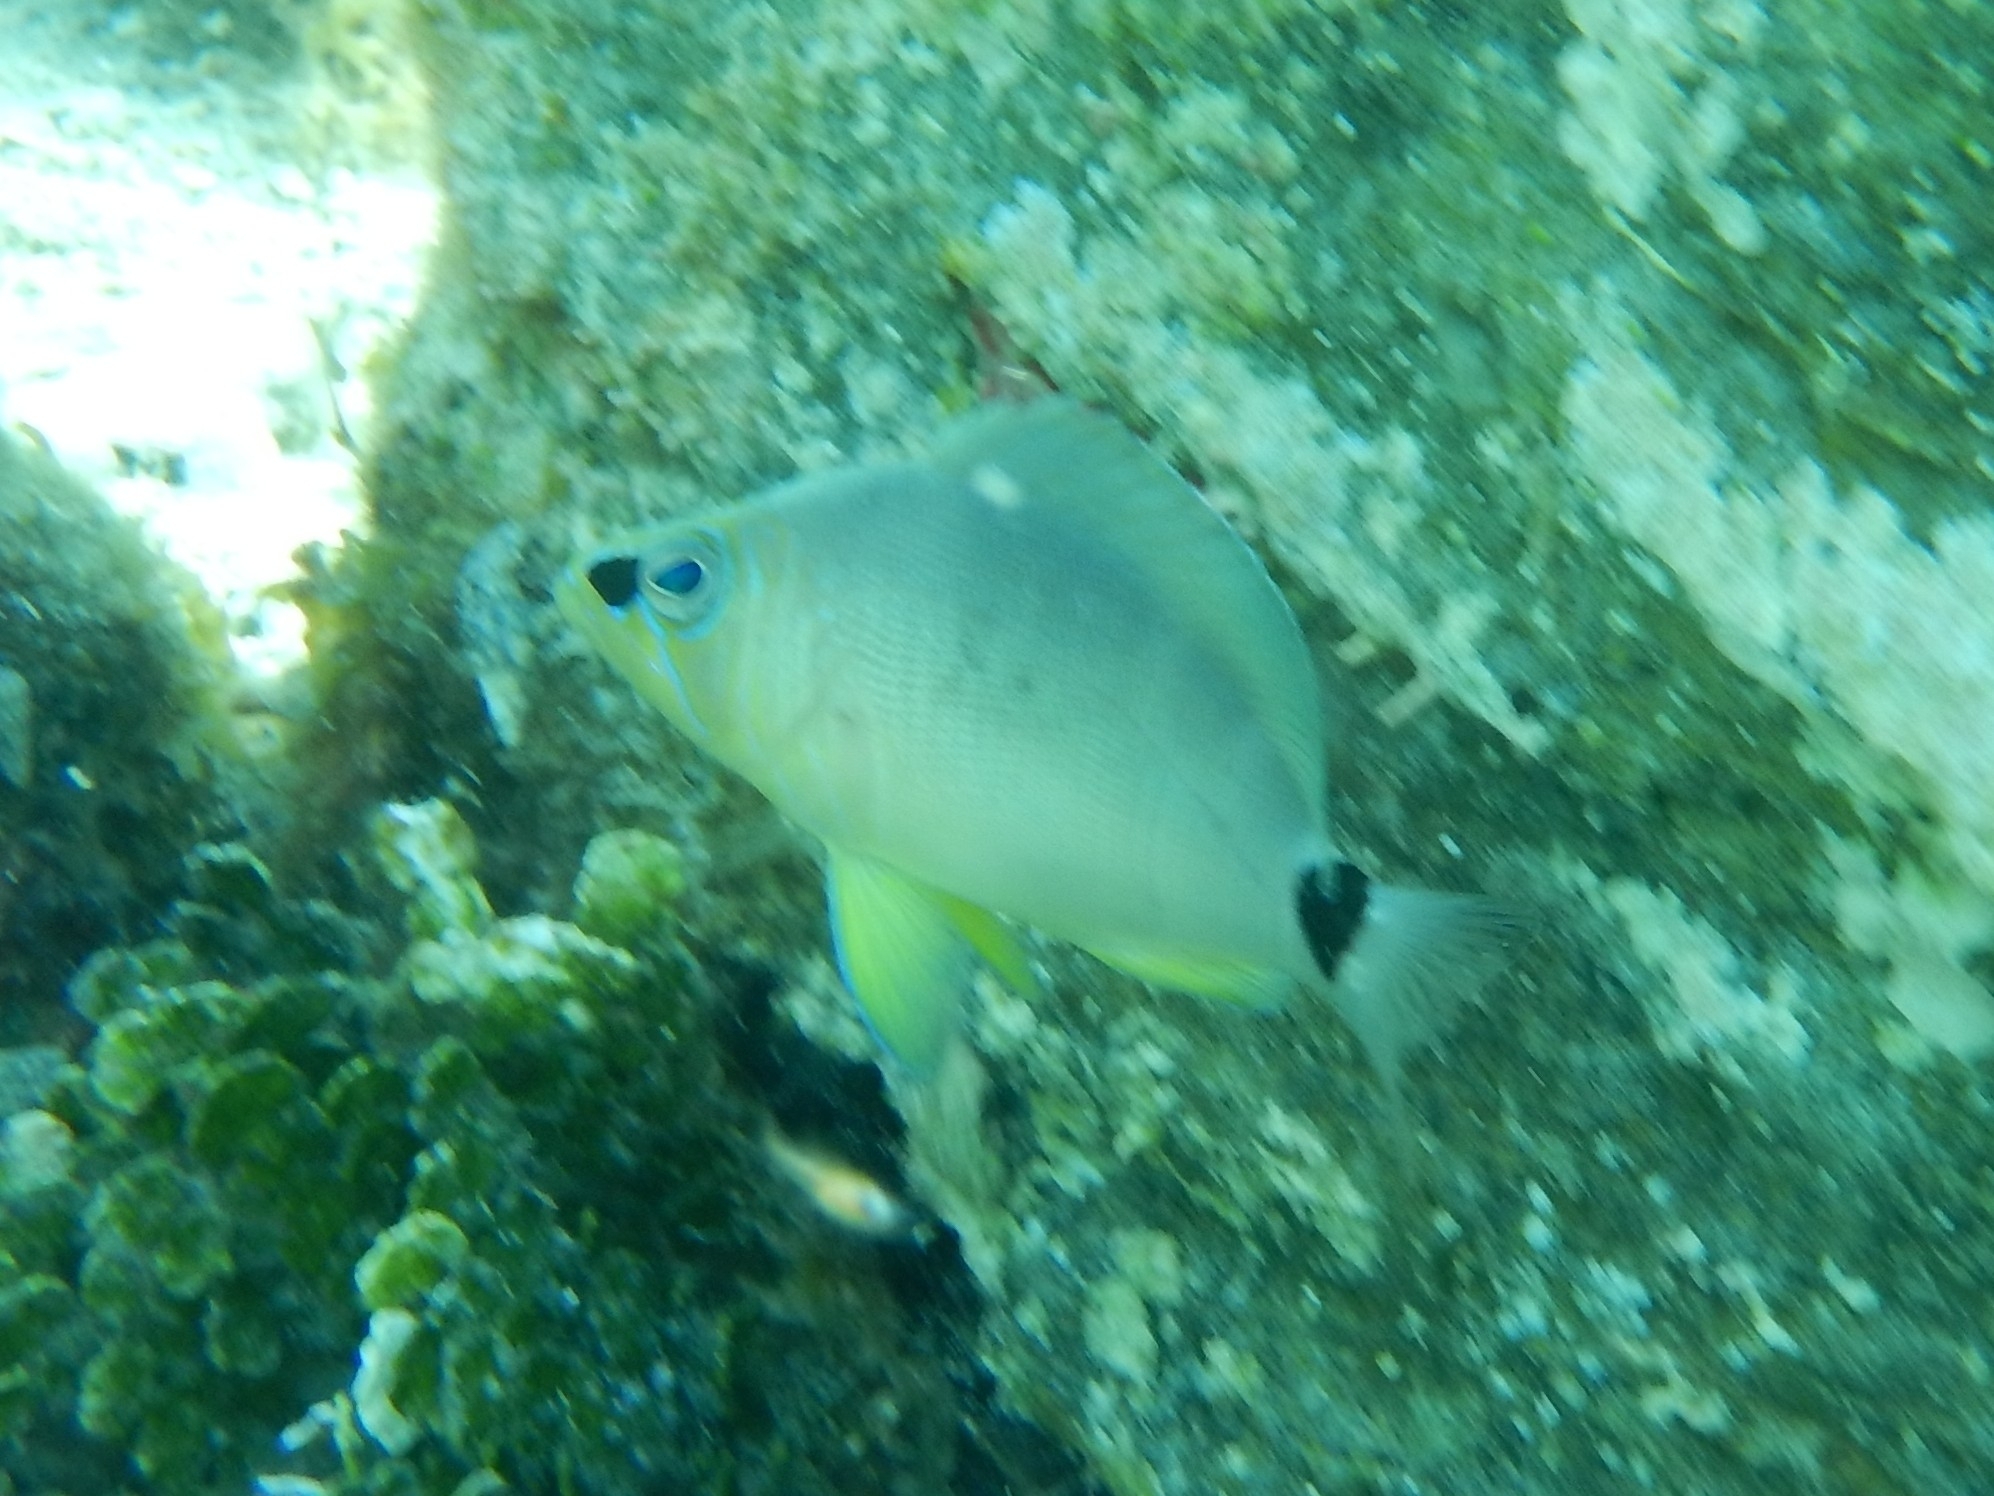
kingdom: Animalia
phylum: Chordata
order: Perciformes
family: Serranidae
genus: Hypoplectrus
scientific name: Hypoplectrus unicolor
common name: Butter hamlet
